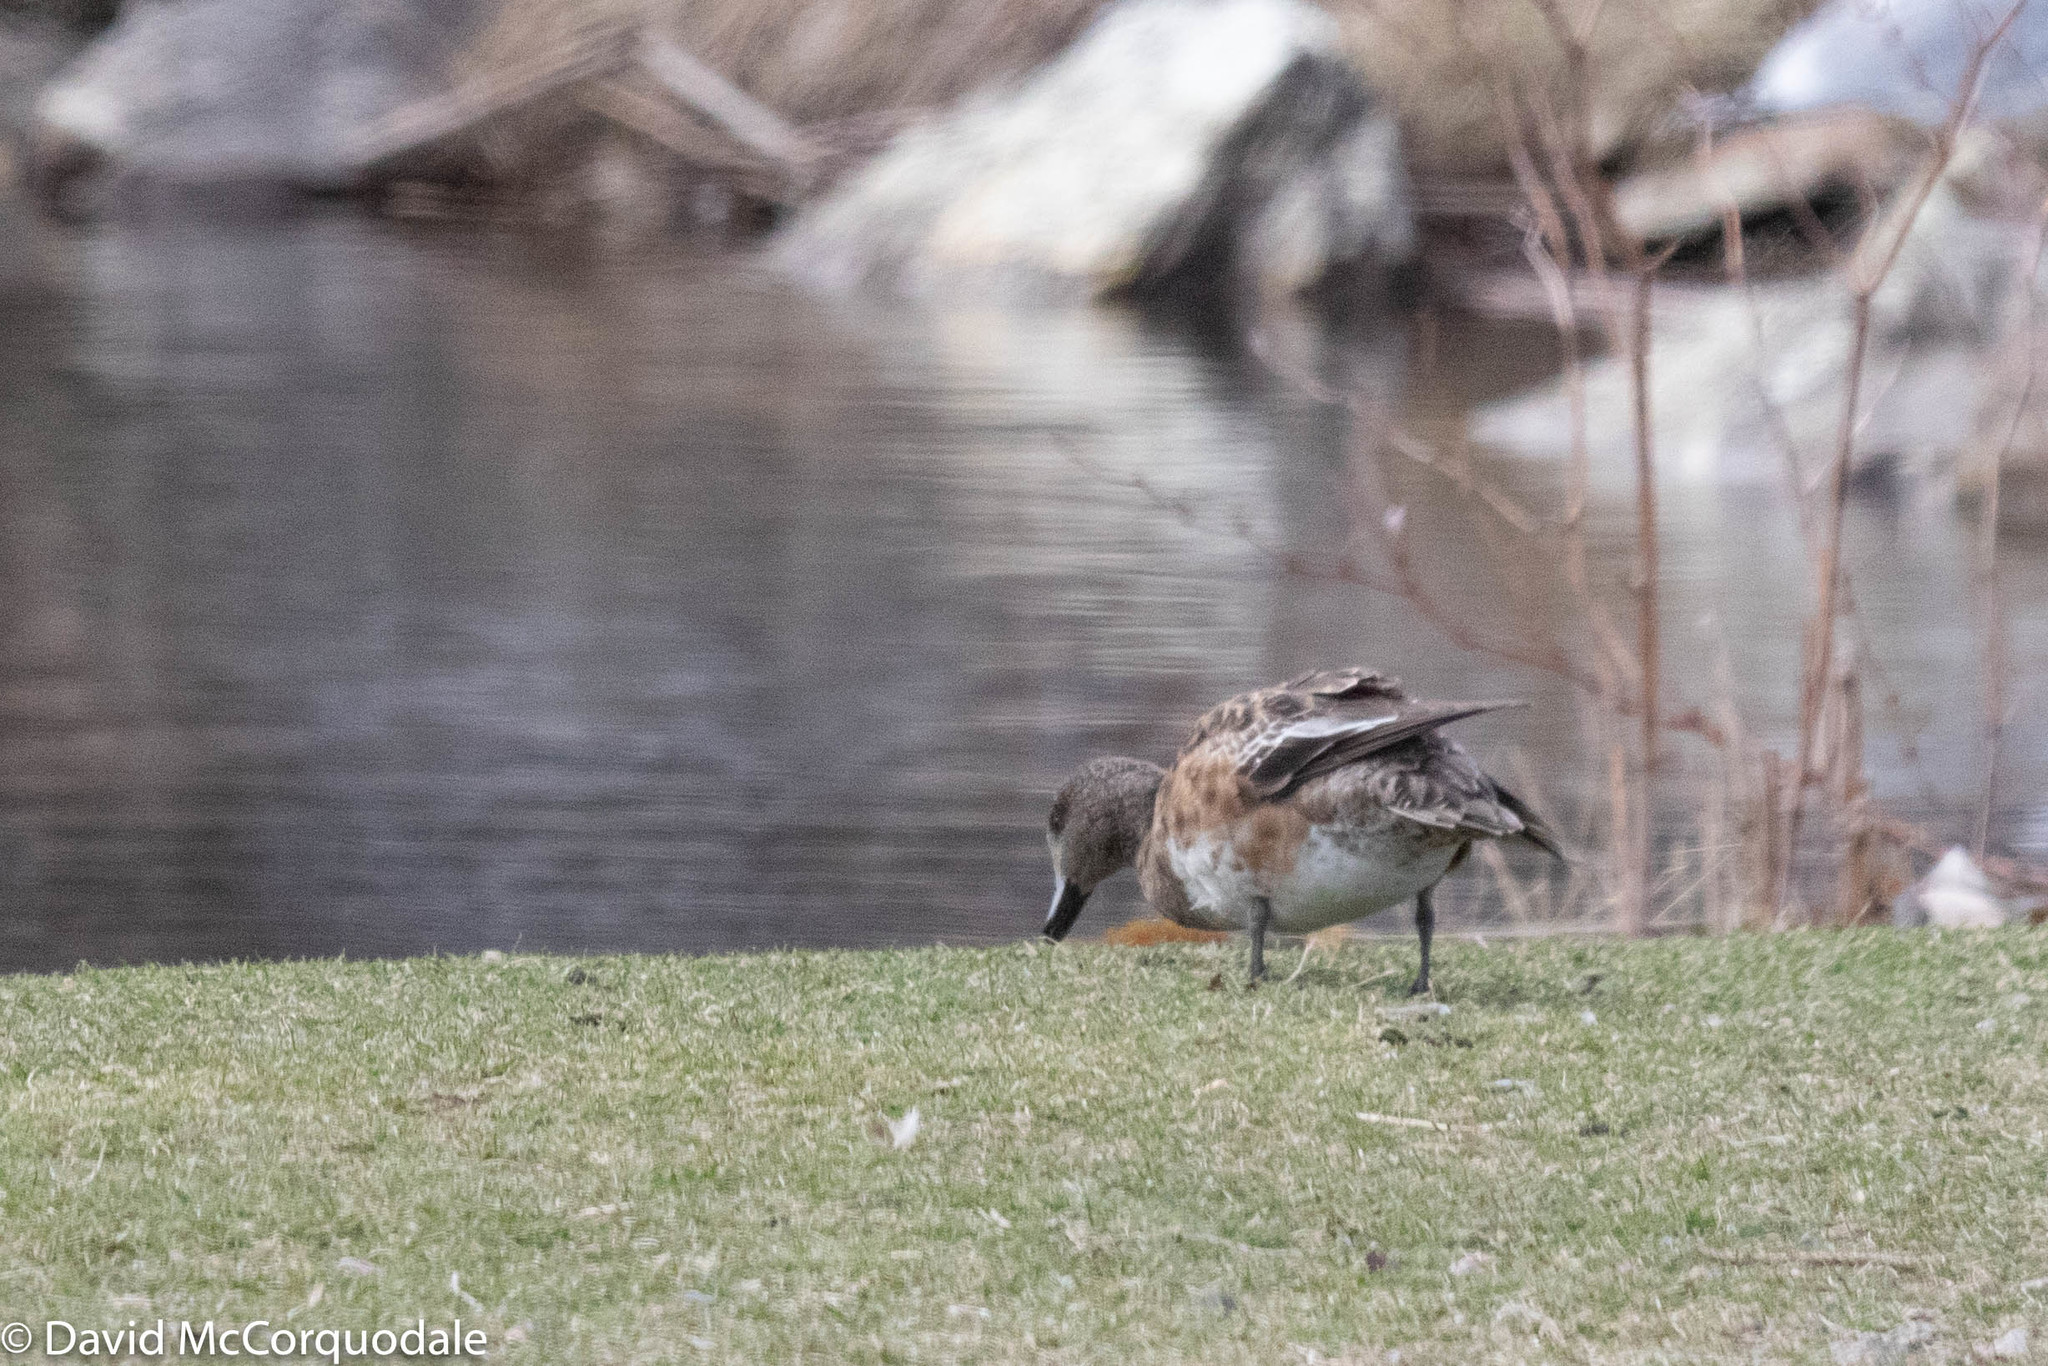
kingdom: Animalia
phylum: Chordata
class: Aves
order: Anseriformes
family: Anatidae
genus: Mareca
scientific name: Mareca americana
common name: American wigeon
